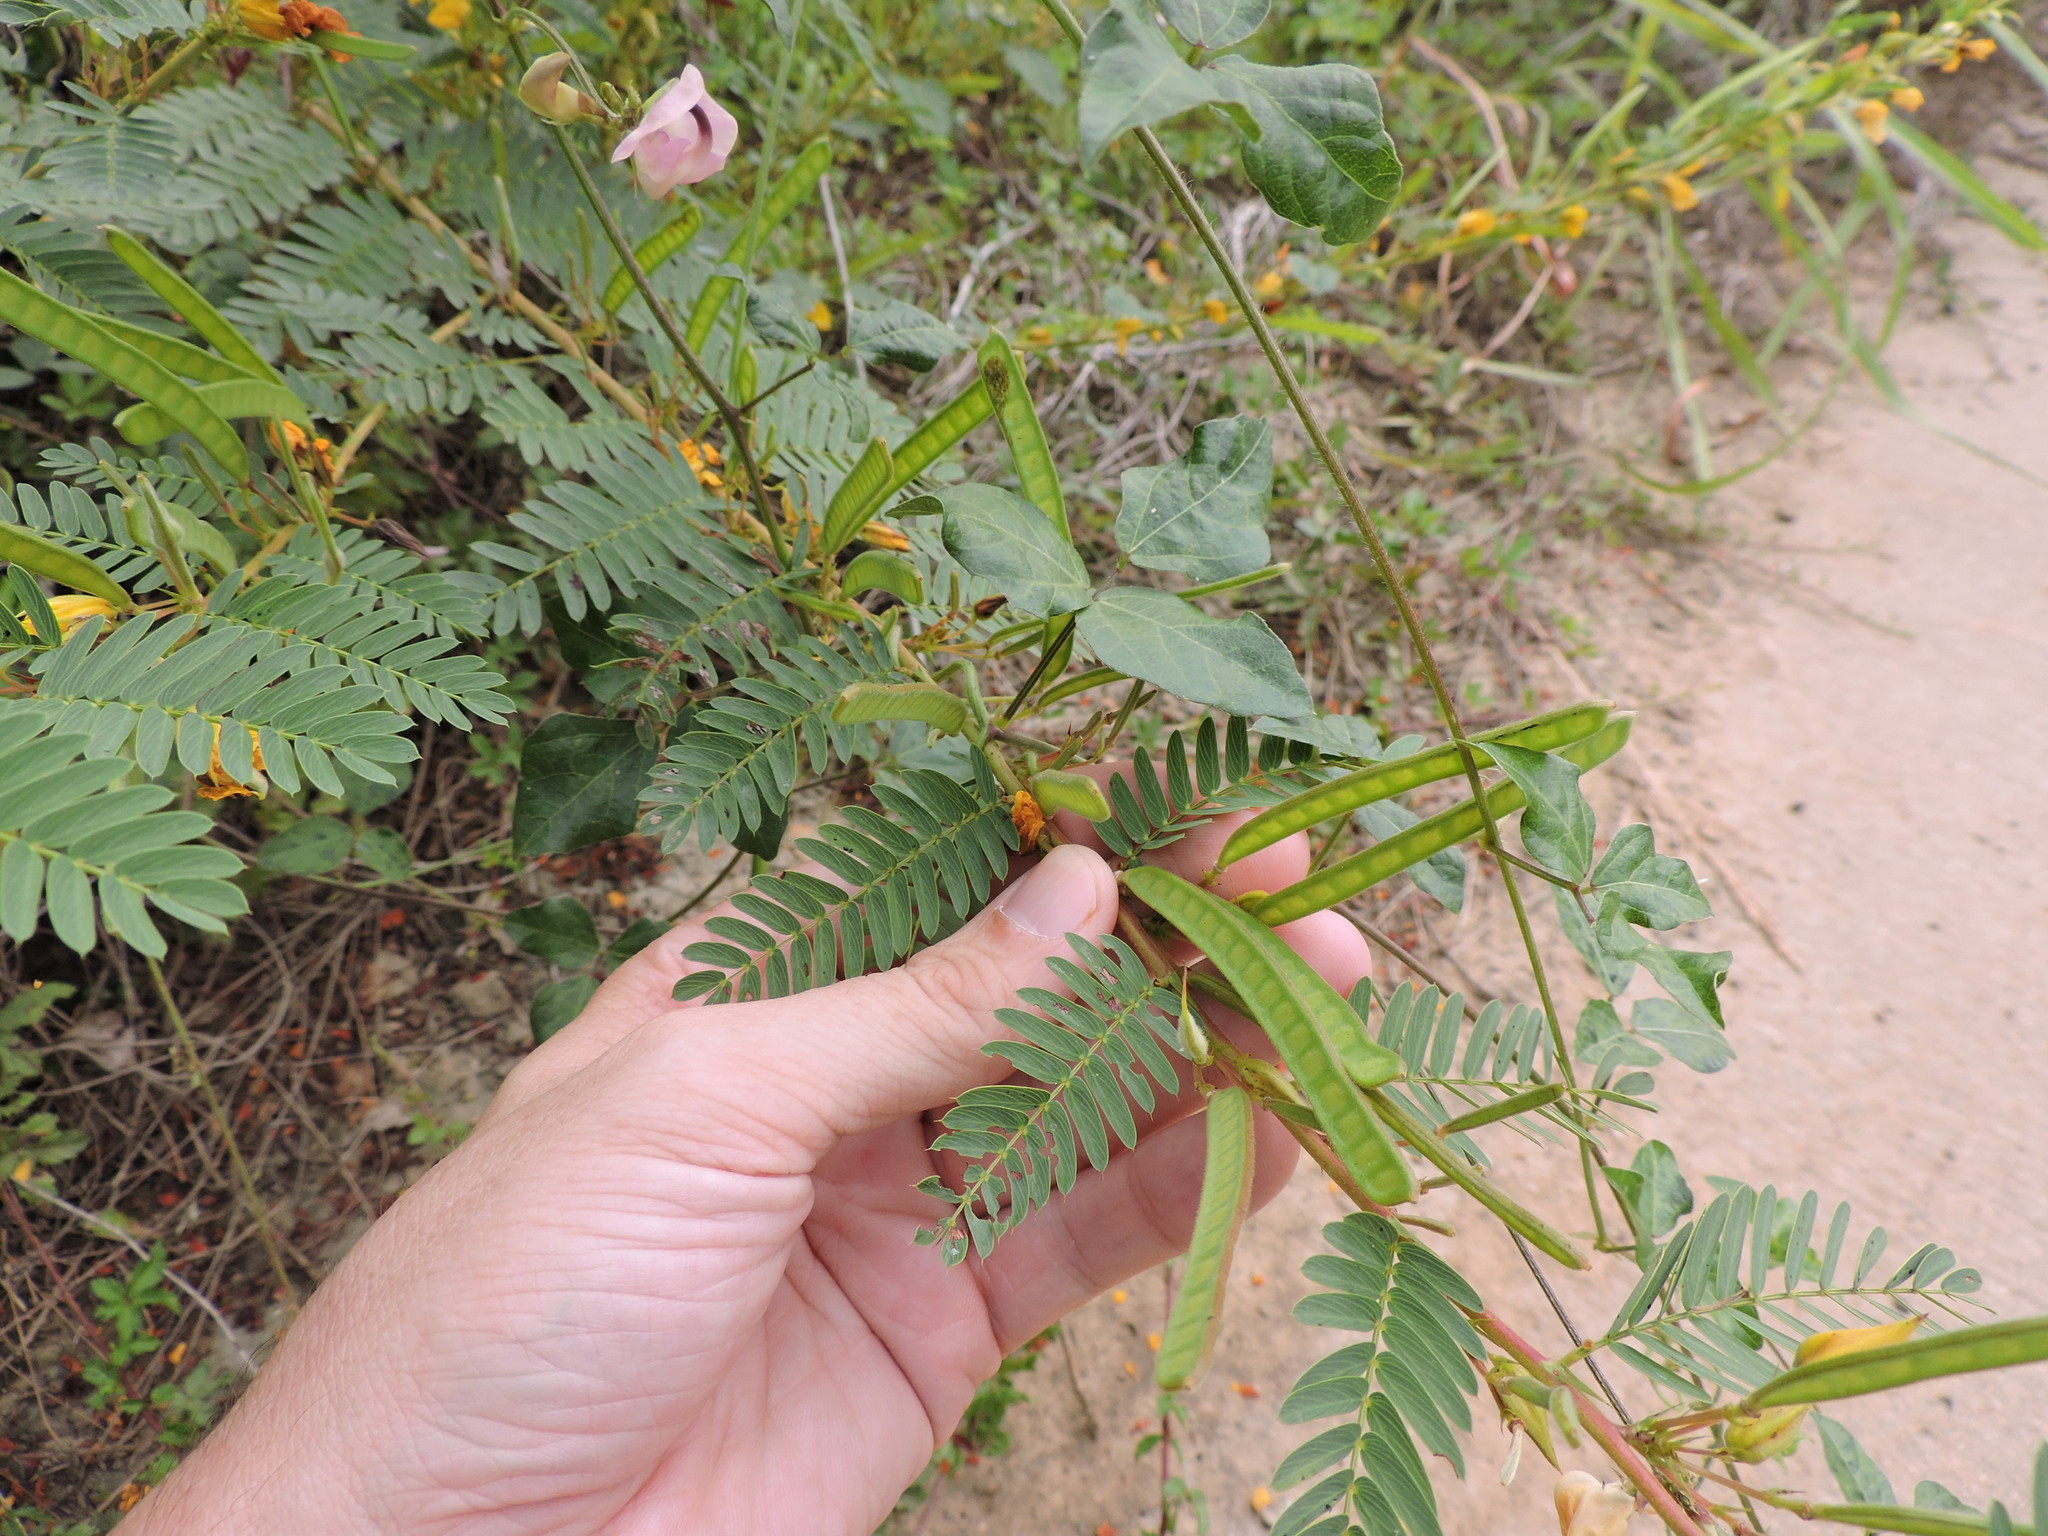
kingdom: Plantae
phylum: Tracheophyta
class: Magnoliopsida
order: Fabales
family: Fabaceae
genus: Chamaecrista
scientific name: Chamaecrista fasciculata
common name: Golden cassia
